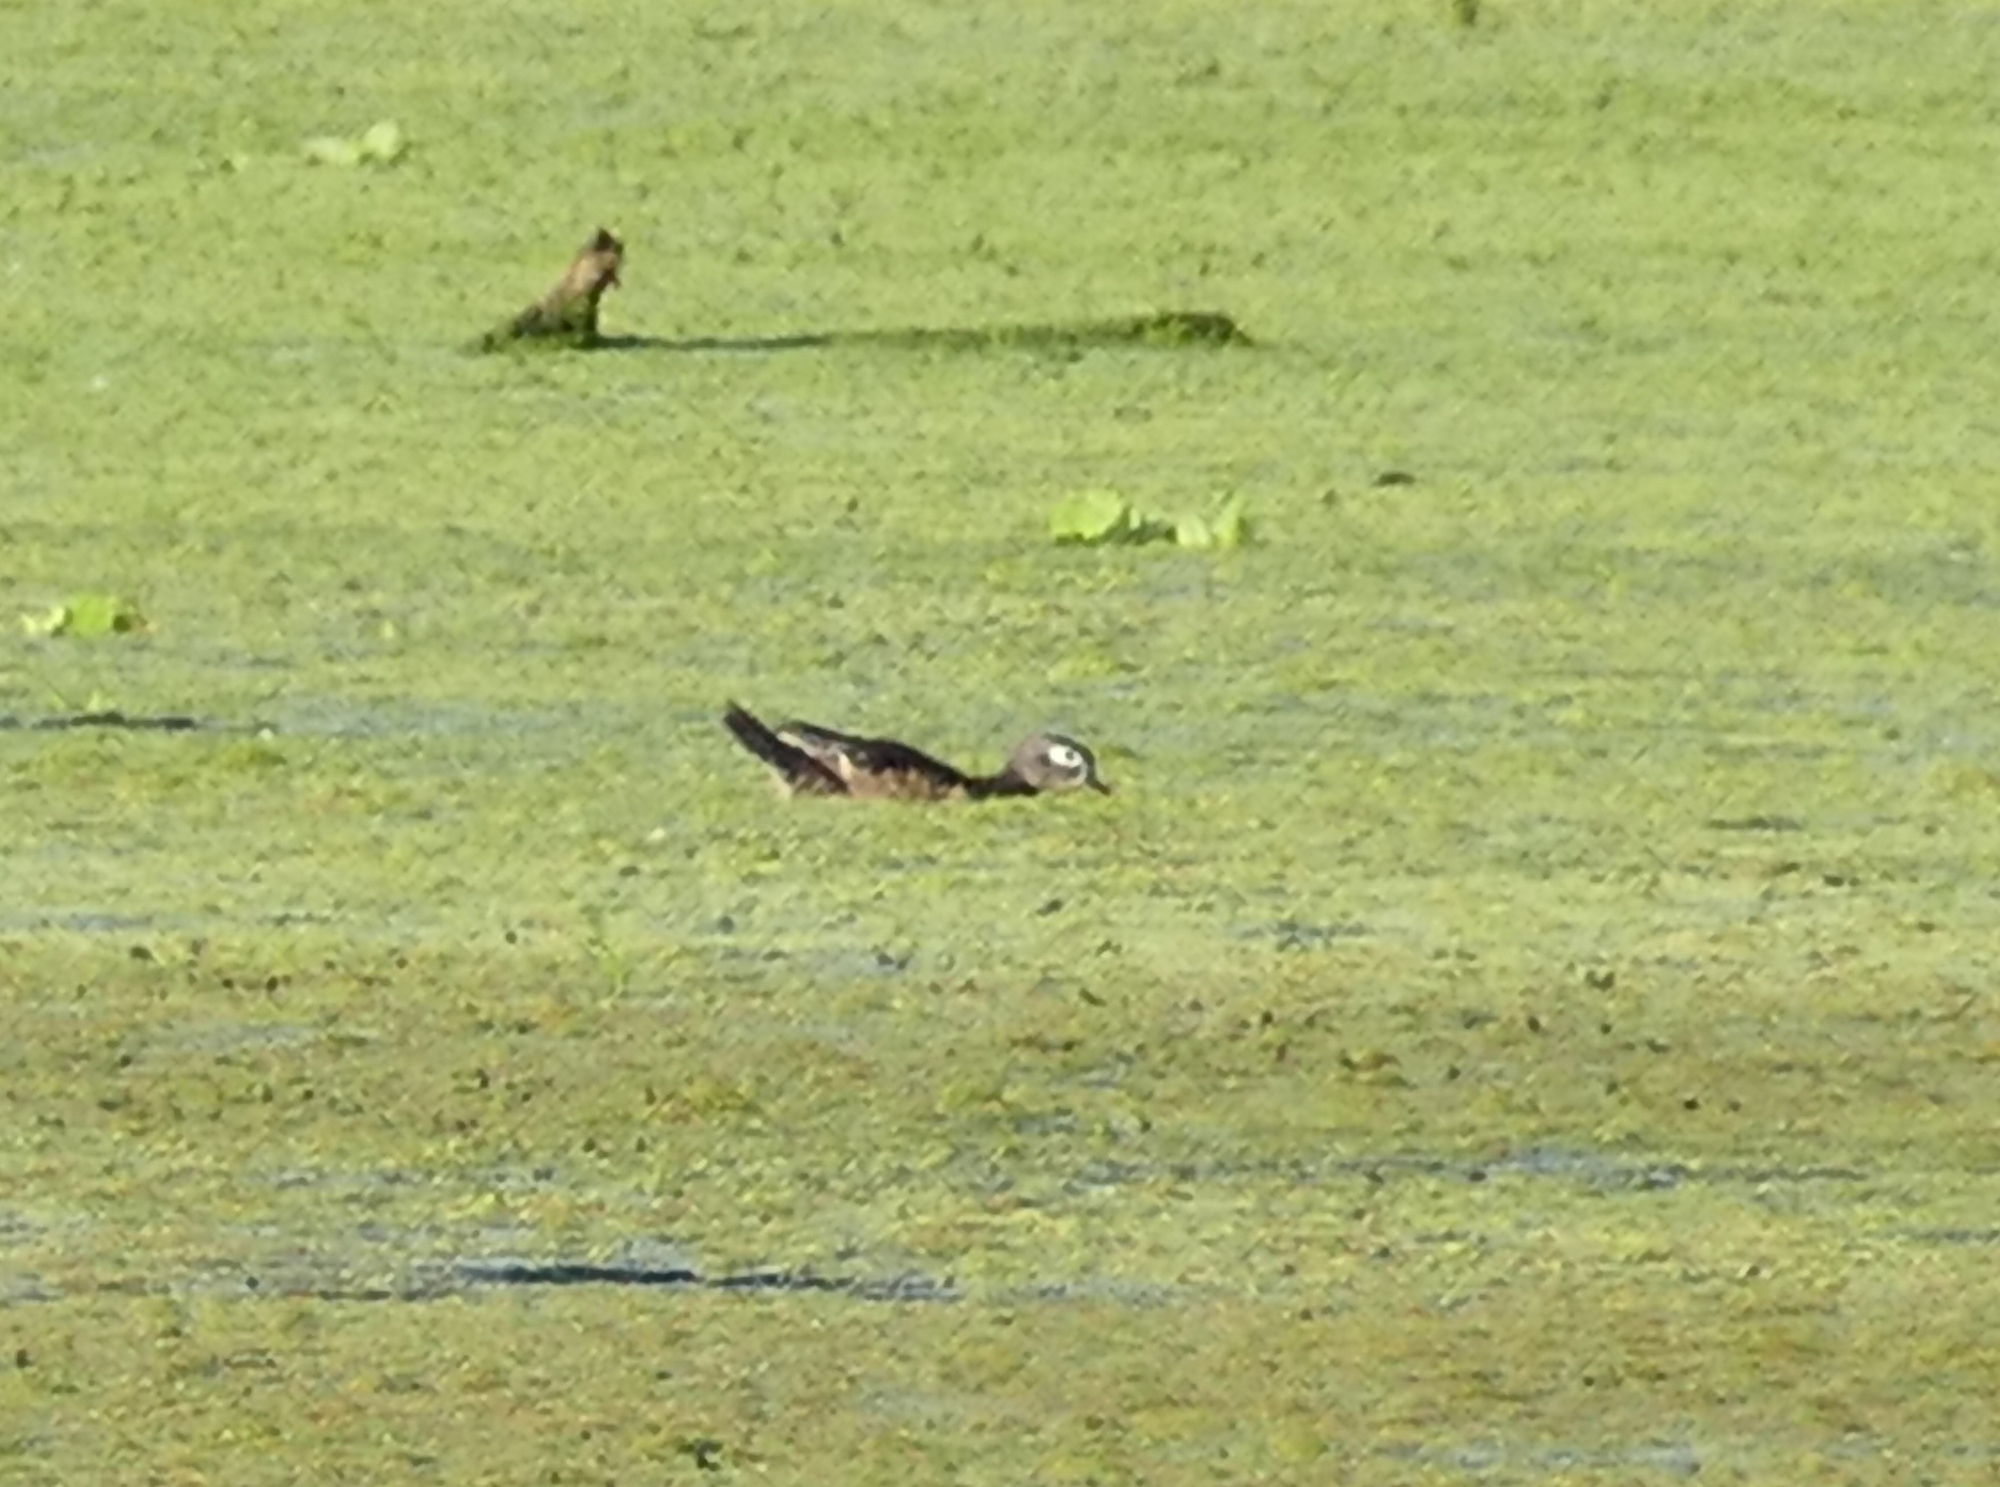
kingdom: Animalia
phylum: Chordata
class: Aves
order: Anseriformes
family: Anatidae
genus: Aix
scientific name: Aix sponsa
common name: Wood duck
